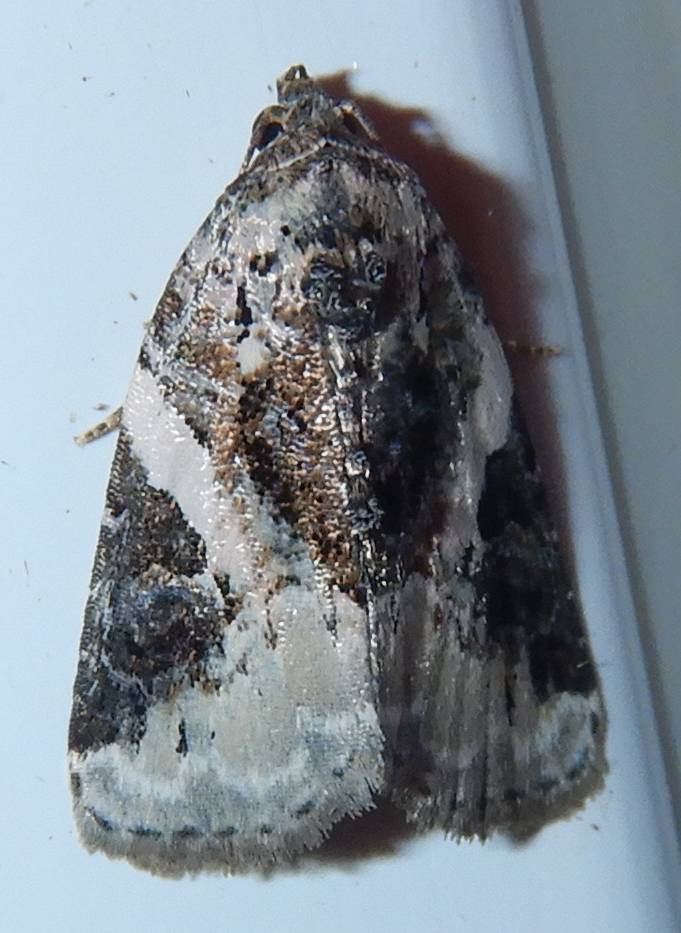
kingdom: Animalia
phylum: Arthropoda
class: Insecta
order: Lepidoptera
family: Noctuidae
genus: Pseudeustrotia
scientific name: Pseudeustrotia carneola
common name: Pink-barred lithacodia moth
